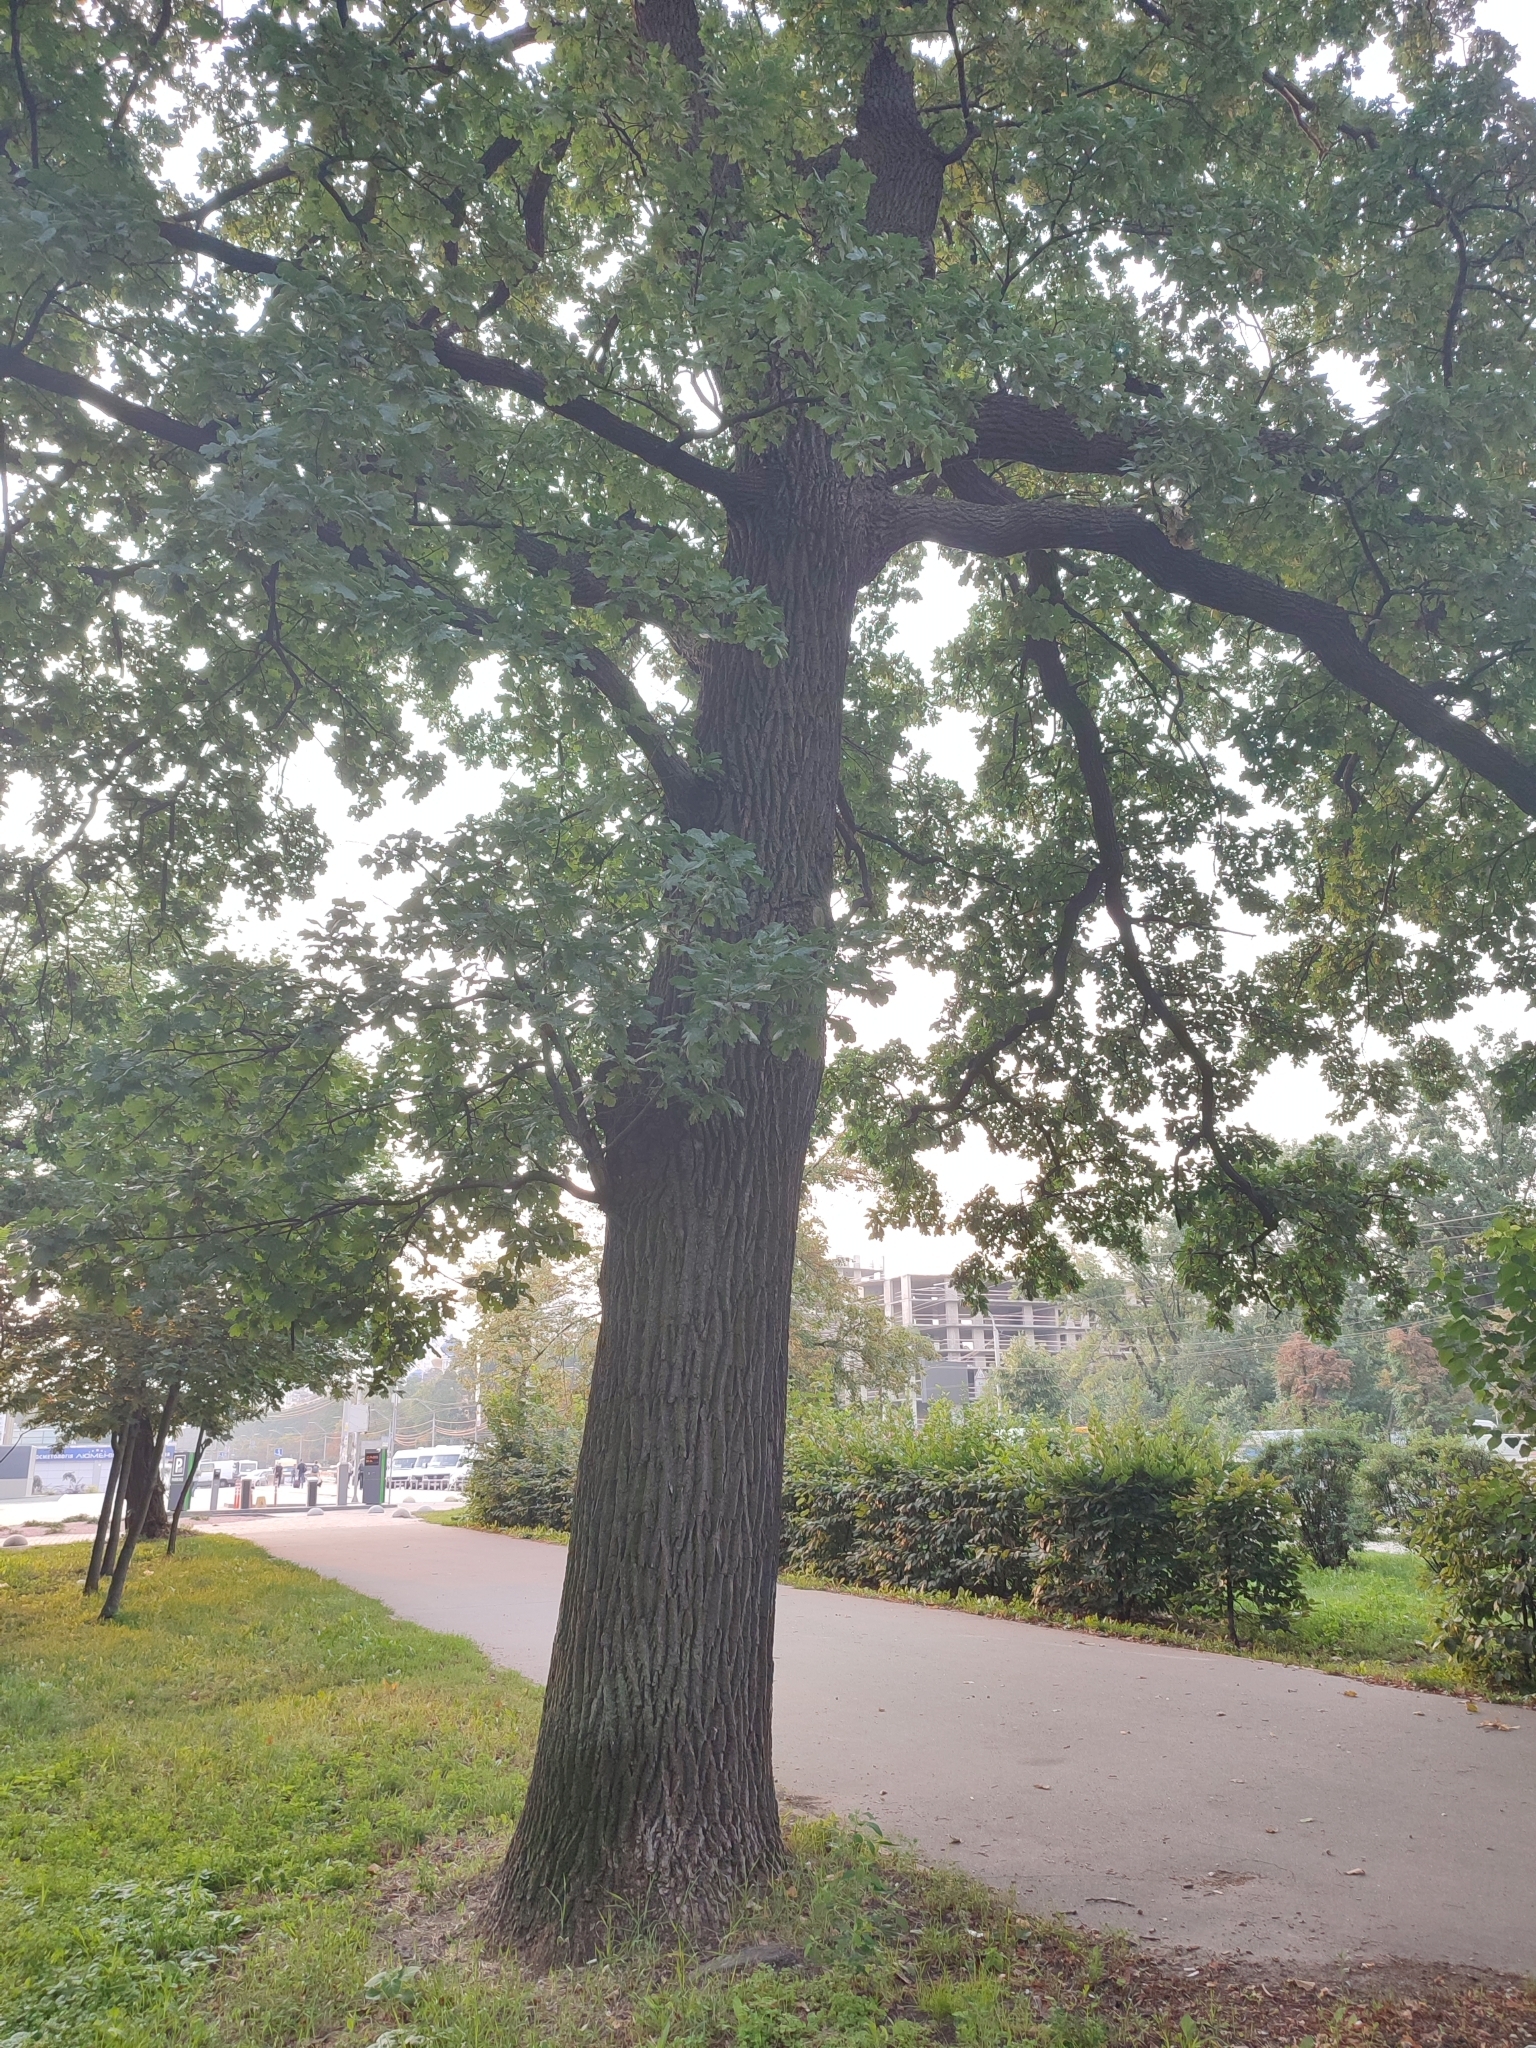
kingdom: Plantae
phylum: Tracheophyta
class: Magnoliopsida
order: Fagales
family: Fagaceae
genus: Quercus
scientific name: Quercus robur
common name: Pedunculate oak
